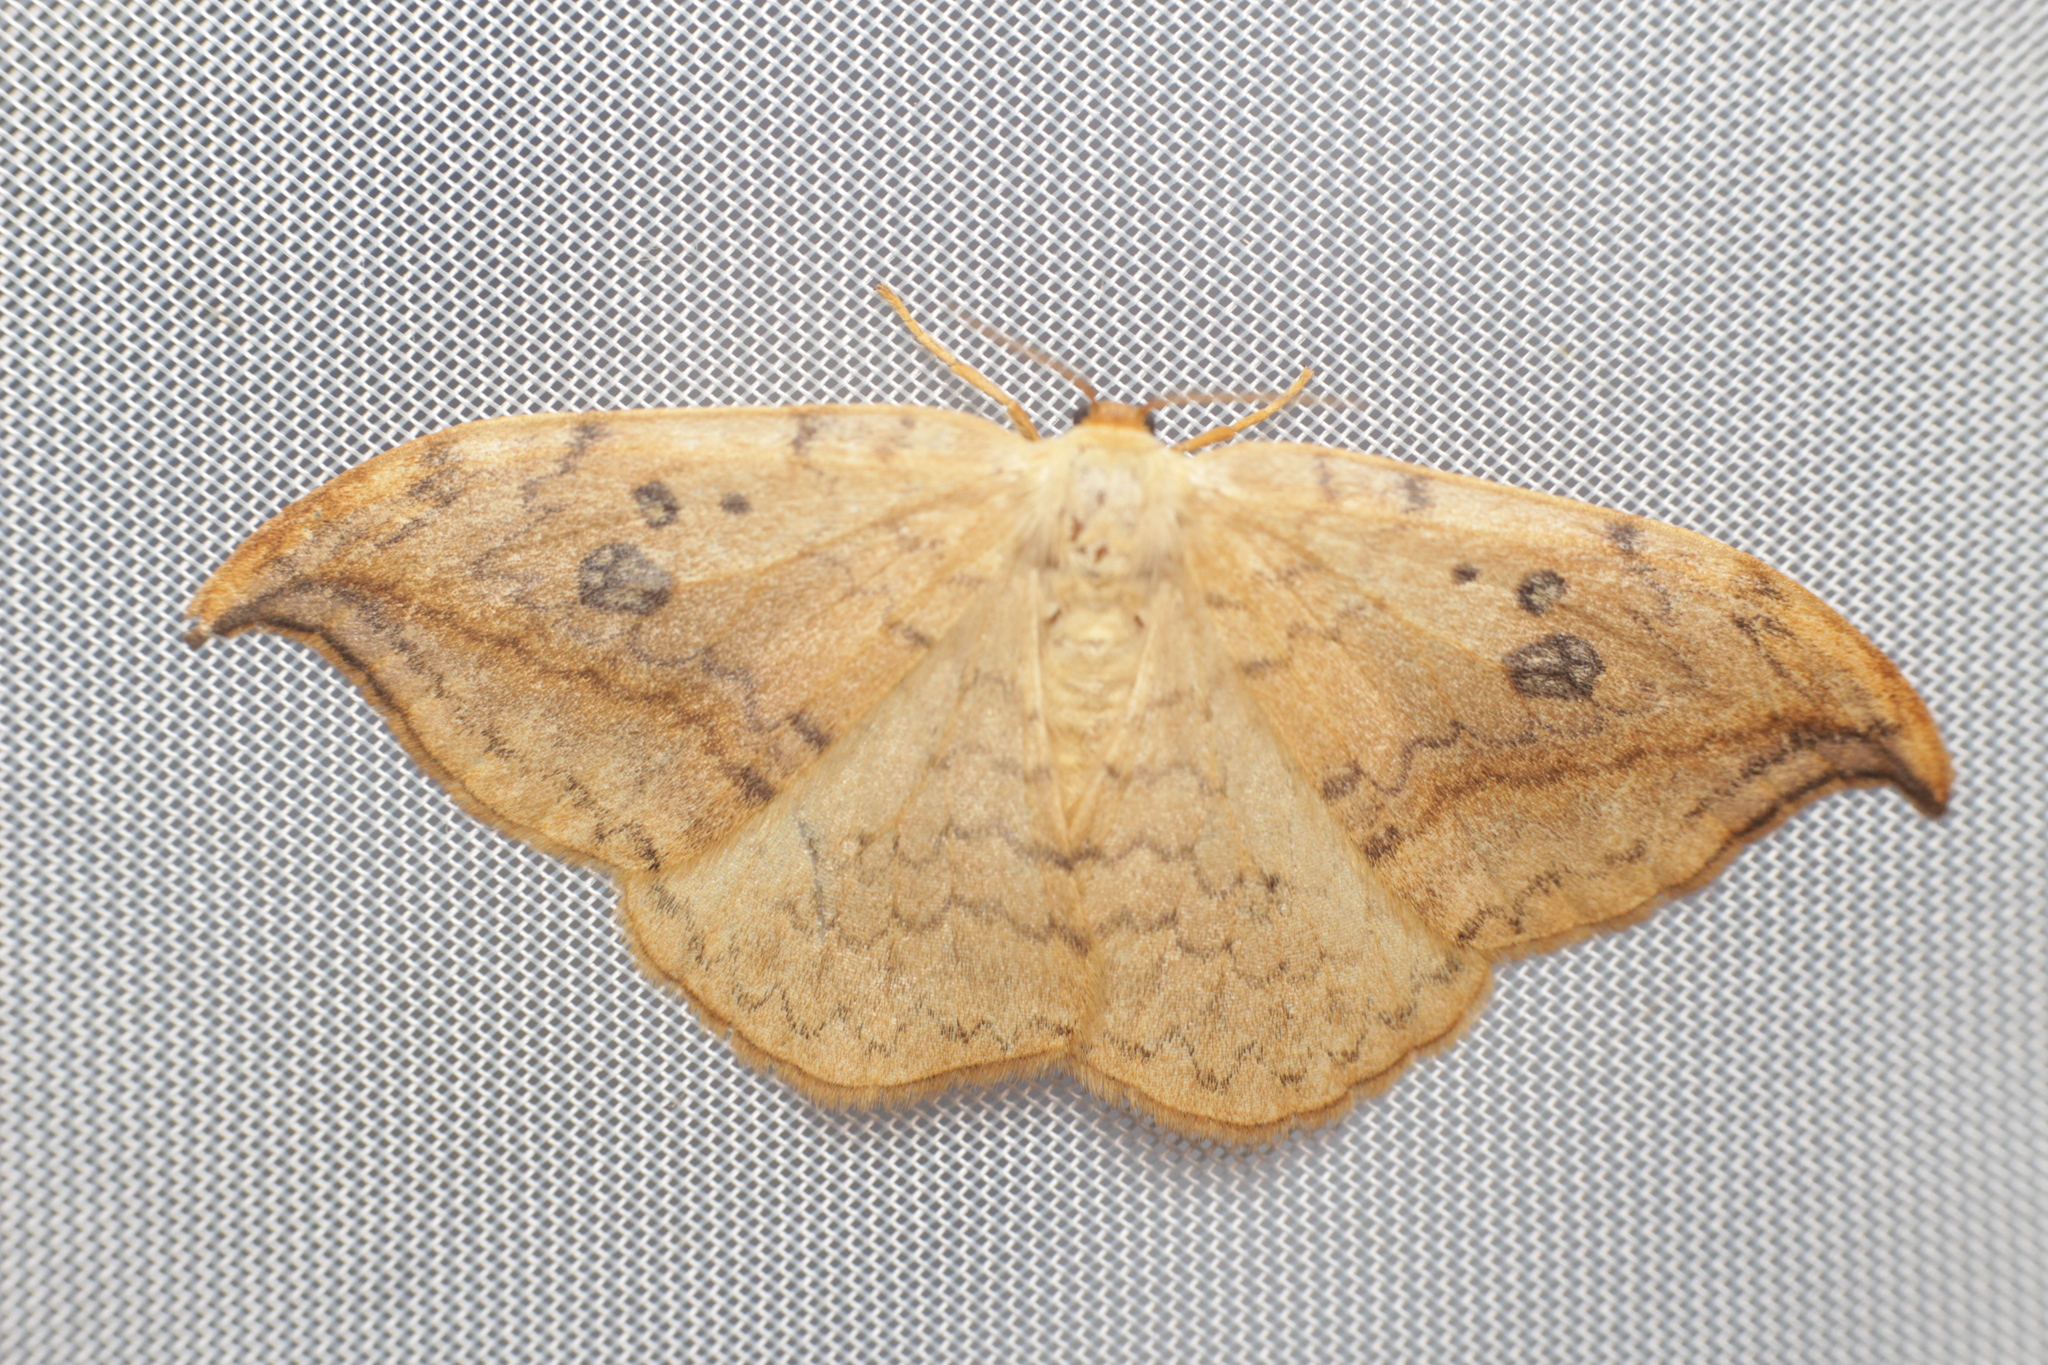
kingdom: Animalia
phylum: Arthropoda
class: Insecta
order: Lepidoptera
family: Drepanidae
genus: Drepana
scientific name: Drepana falcataria
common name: Pebble hook-tip
